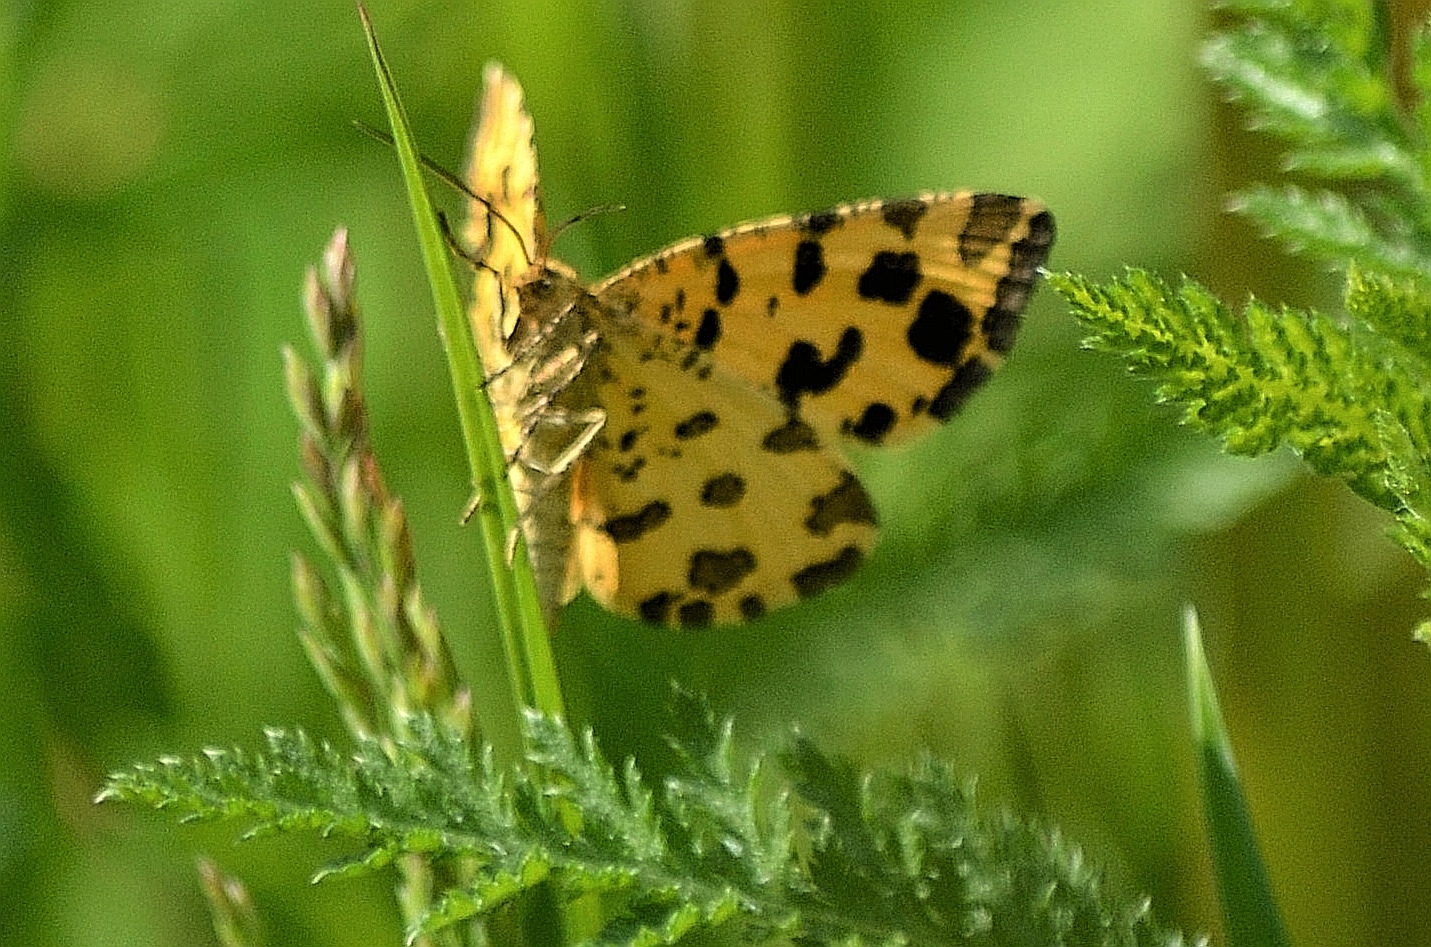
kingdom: Animalia
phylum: Arthropoda
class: Insecta
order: Lepidoptera
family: Geometridae
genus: Pseudopanthera
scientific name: Pseudopanthera macularia
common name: Speckled yellow
